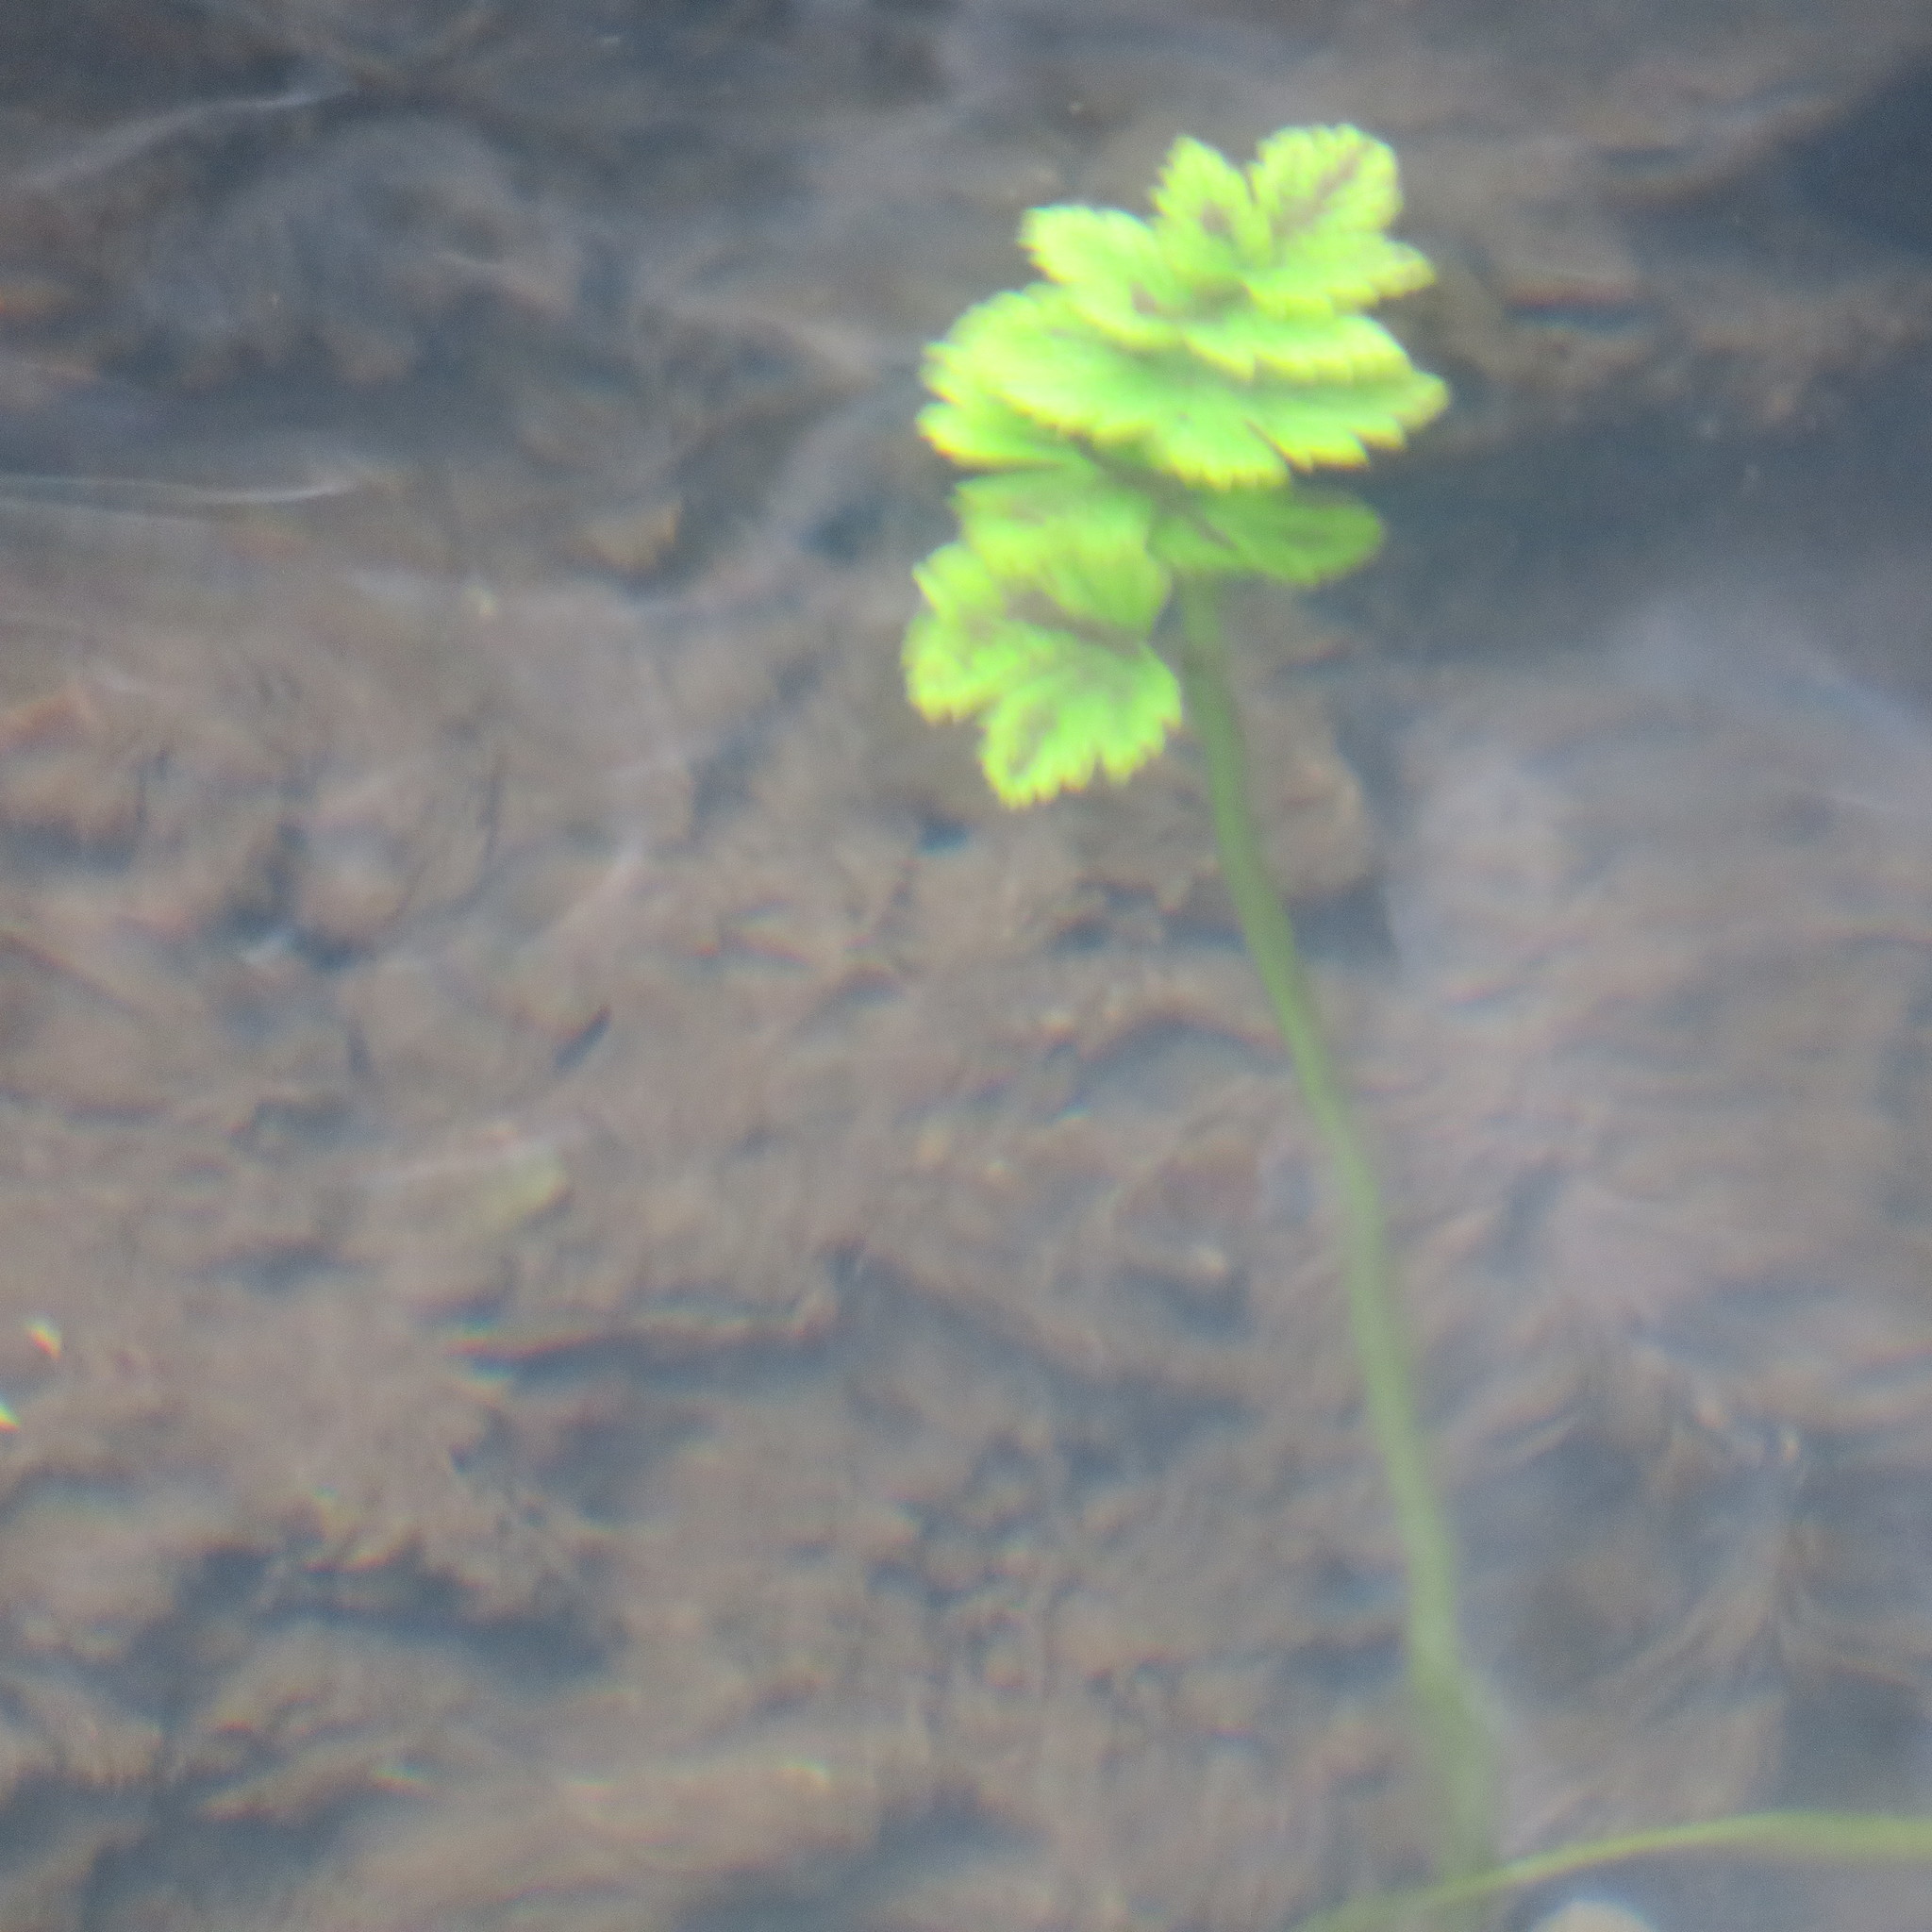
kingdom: Plantae
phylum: Tracheophyta
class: Magnoliopsida
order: Apiales
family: Apiaceae
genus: Oenanthe
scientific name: Oenanthe sarmentosa
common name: American water-parsley
